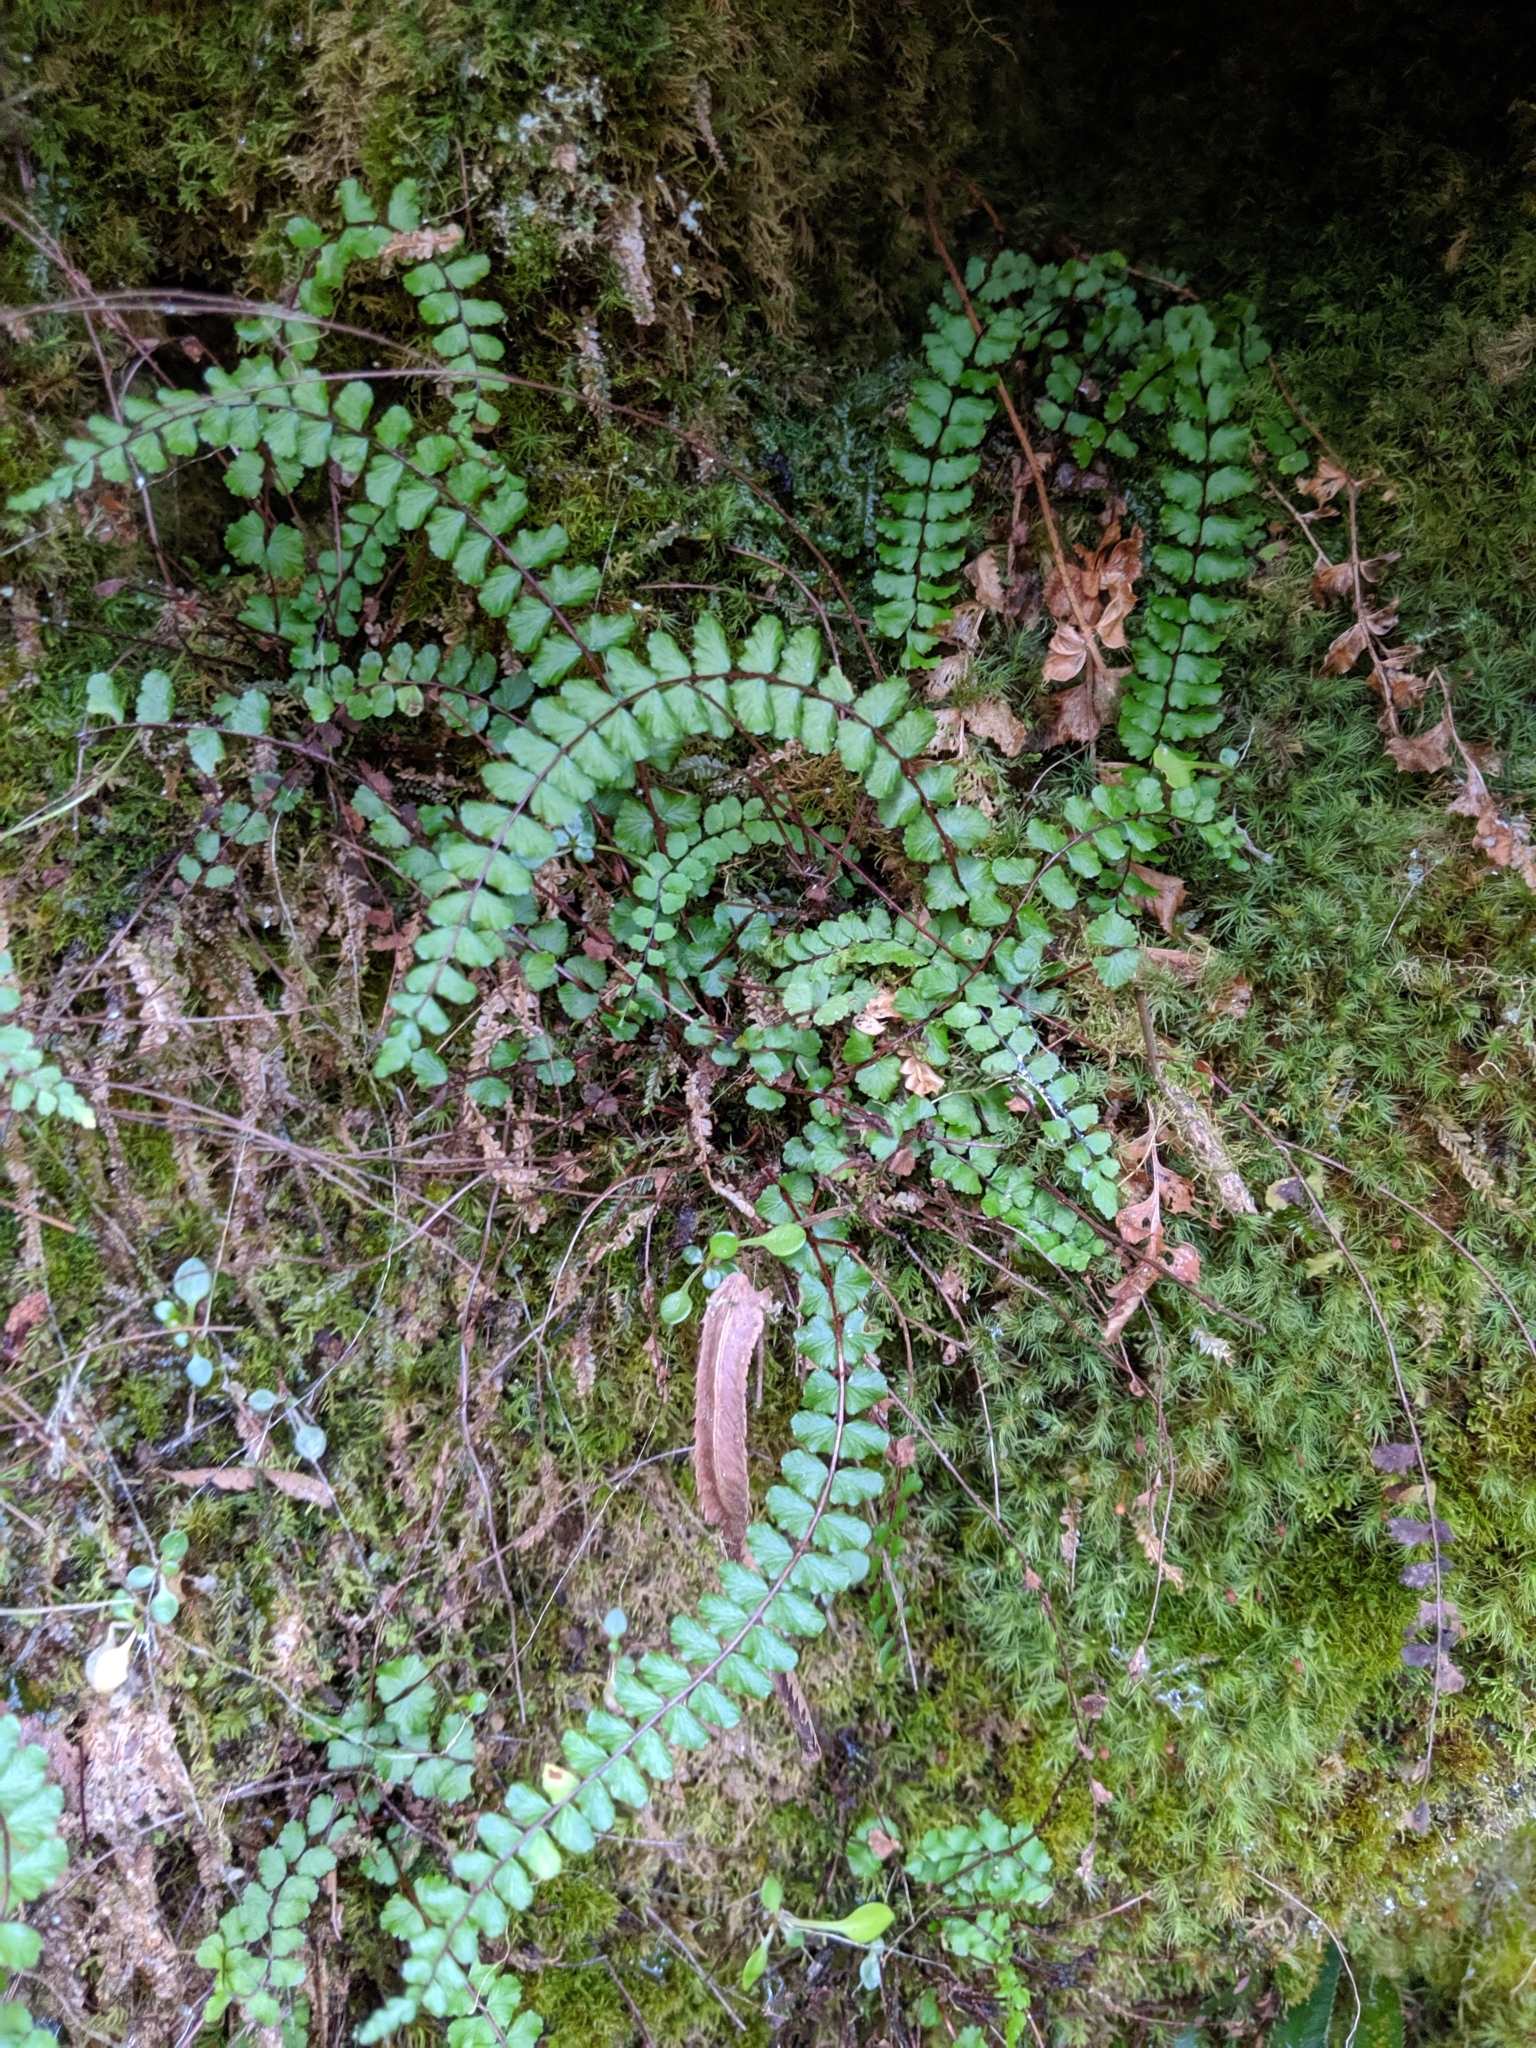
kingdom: Plantae
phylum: Tracheophyta
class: Polypodiopsida
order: Polypodiales
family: Aspleniaceae
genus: Asplenium
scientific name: Asplenium trichomanes
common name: Maidenhair spleenwort
